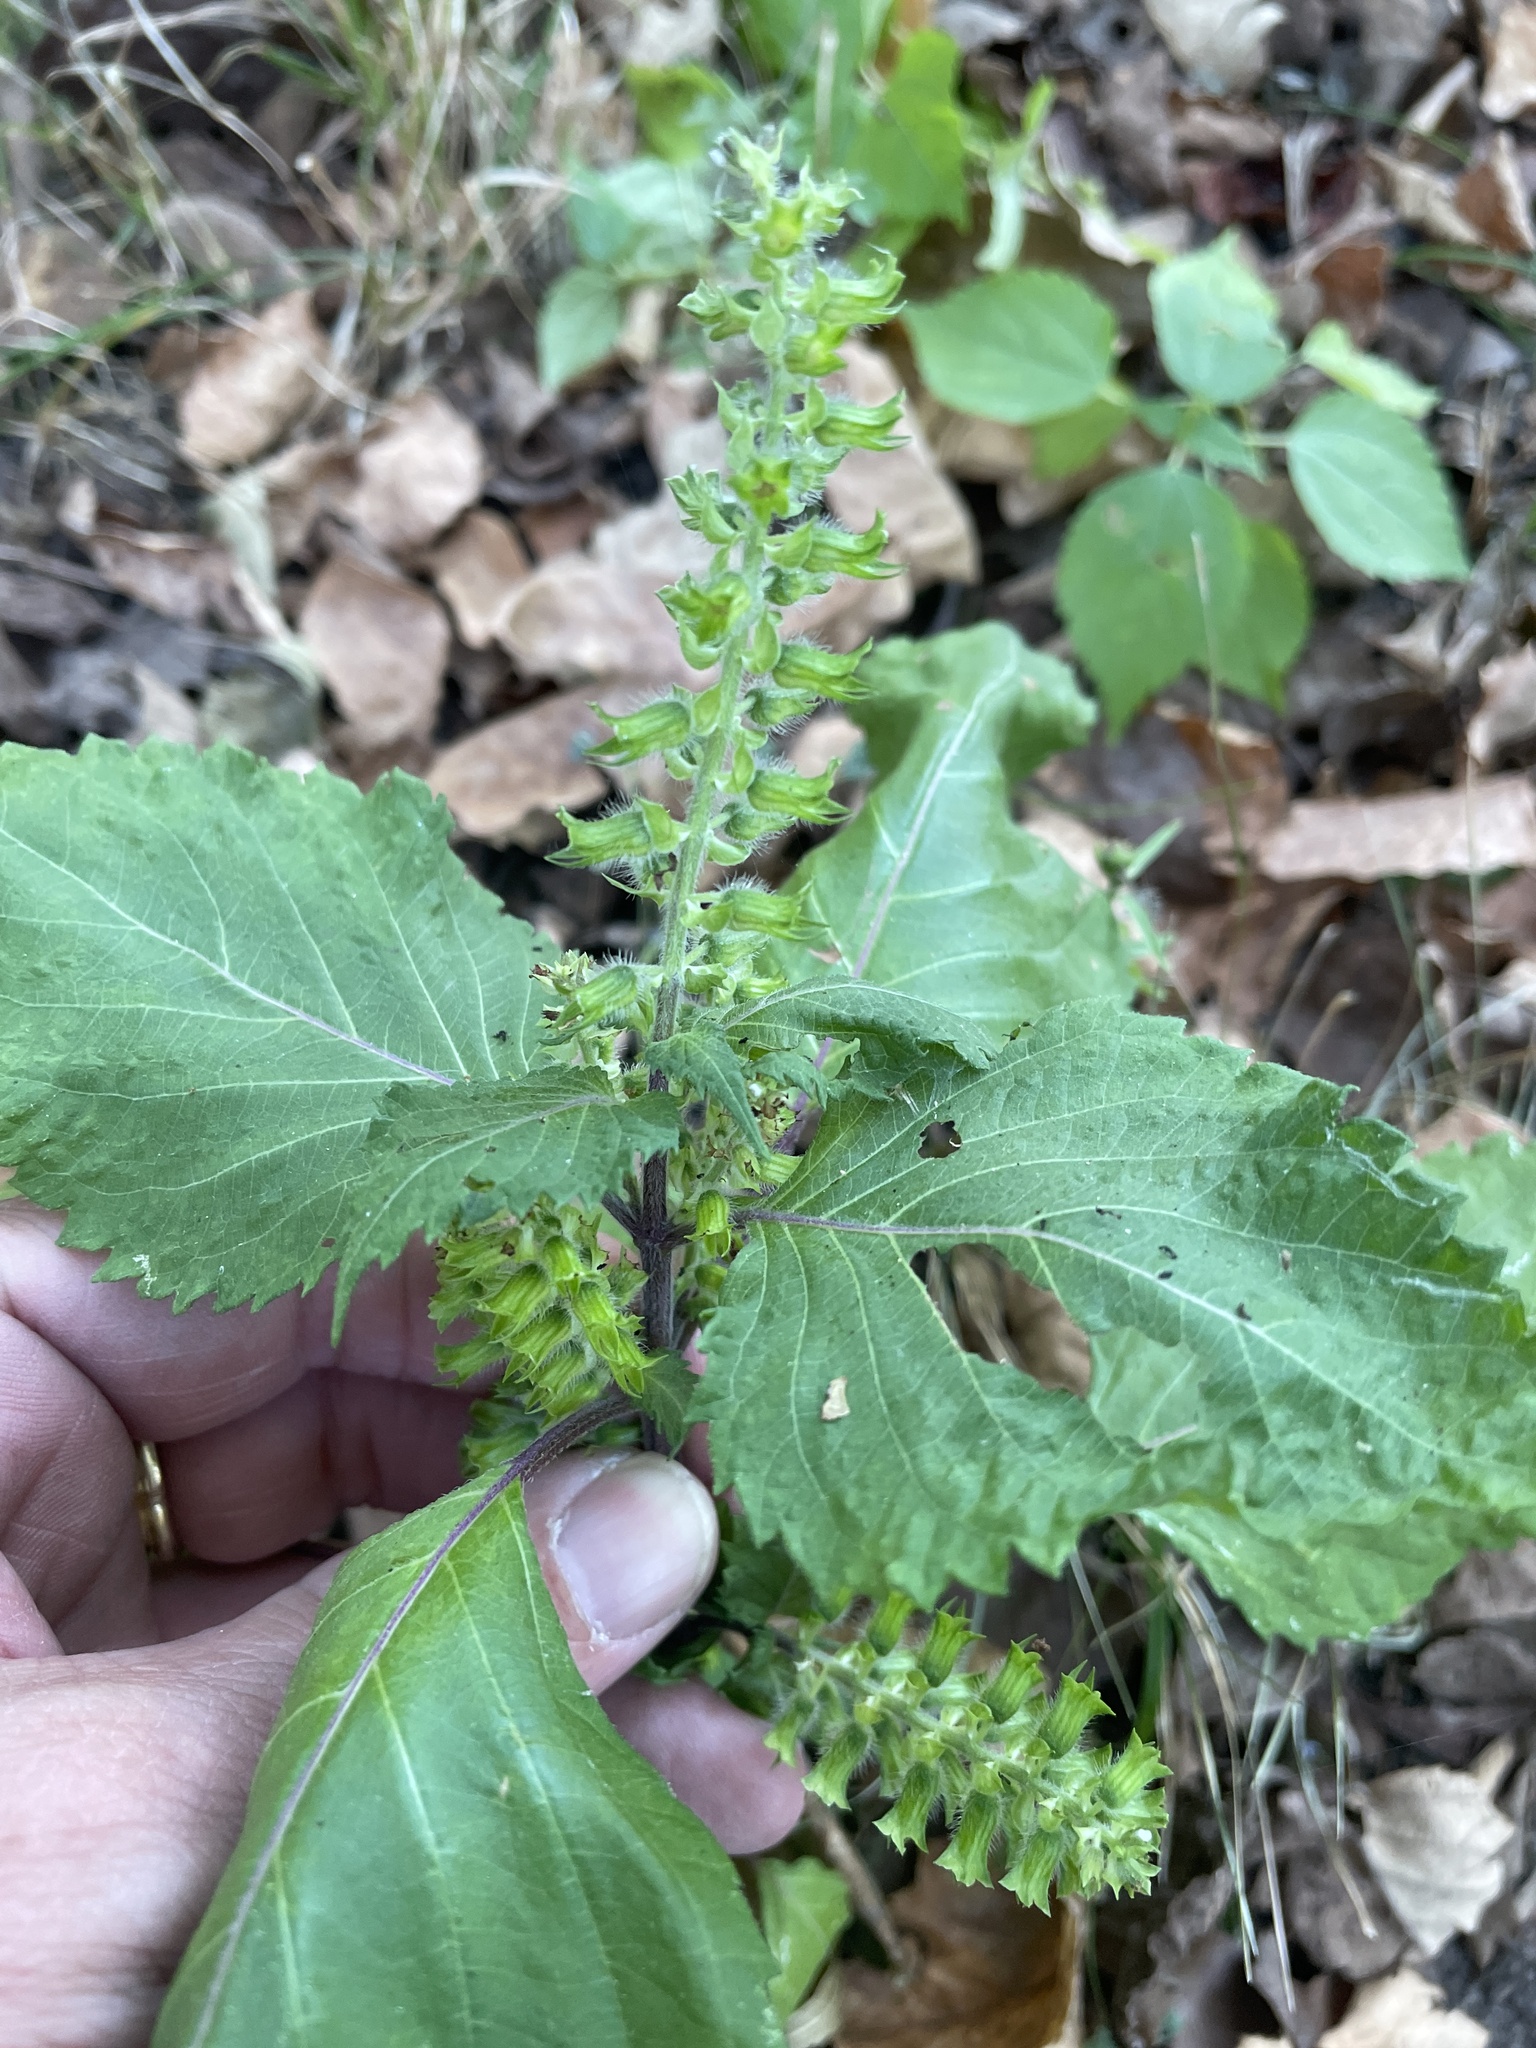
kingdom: Plantae
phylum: Tracheophyta
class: Magnoliopsida
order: Lamiales
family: Lamiaceae
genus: Perilla
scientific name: Perilla frutescens
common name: Perilla
